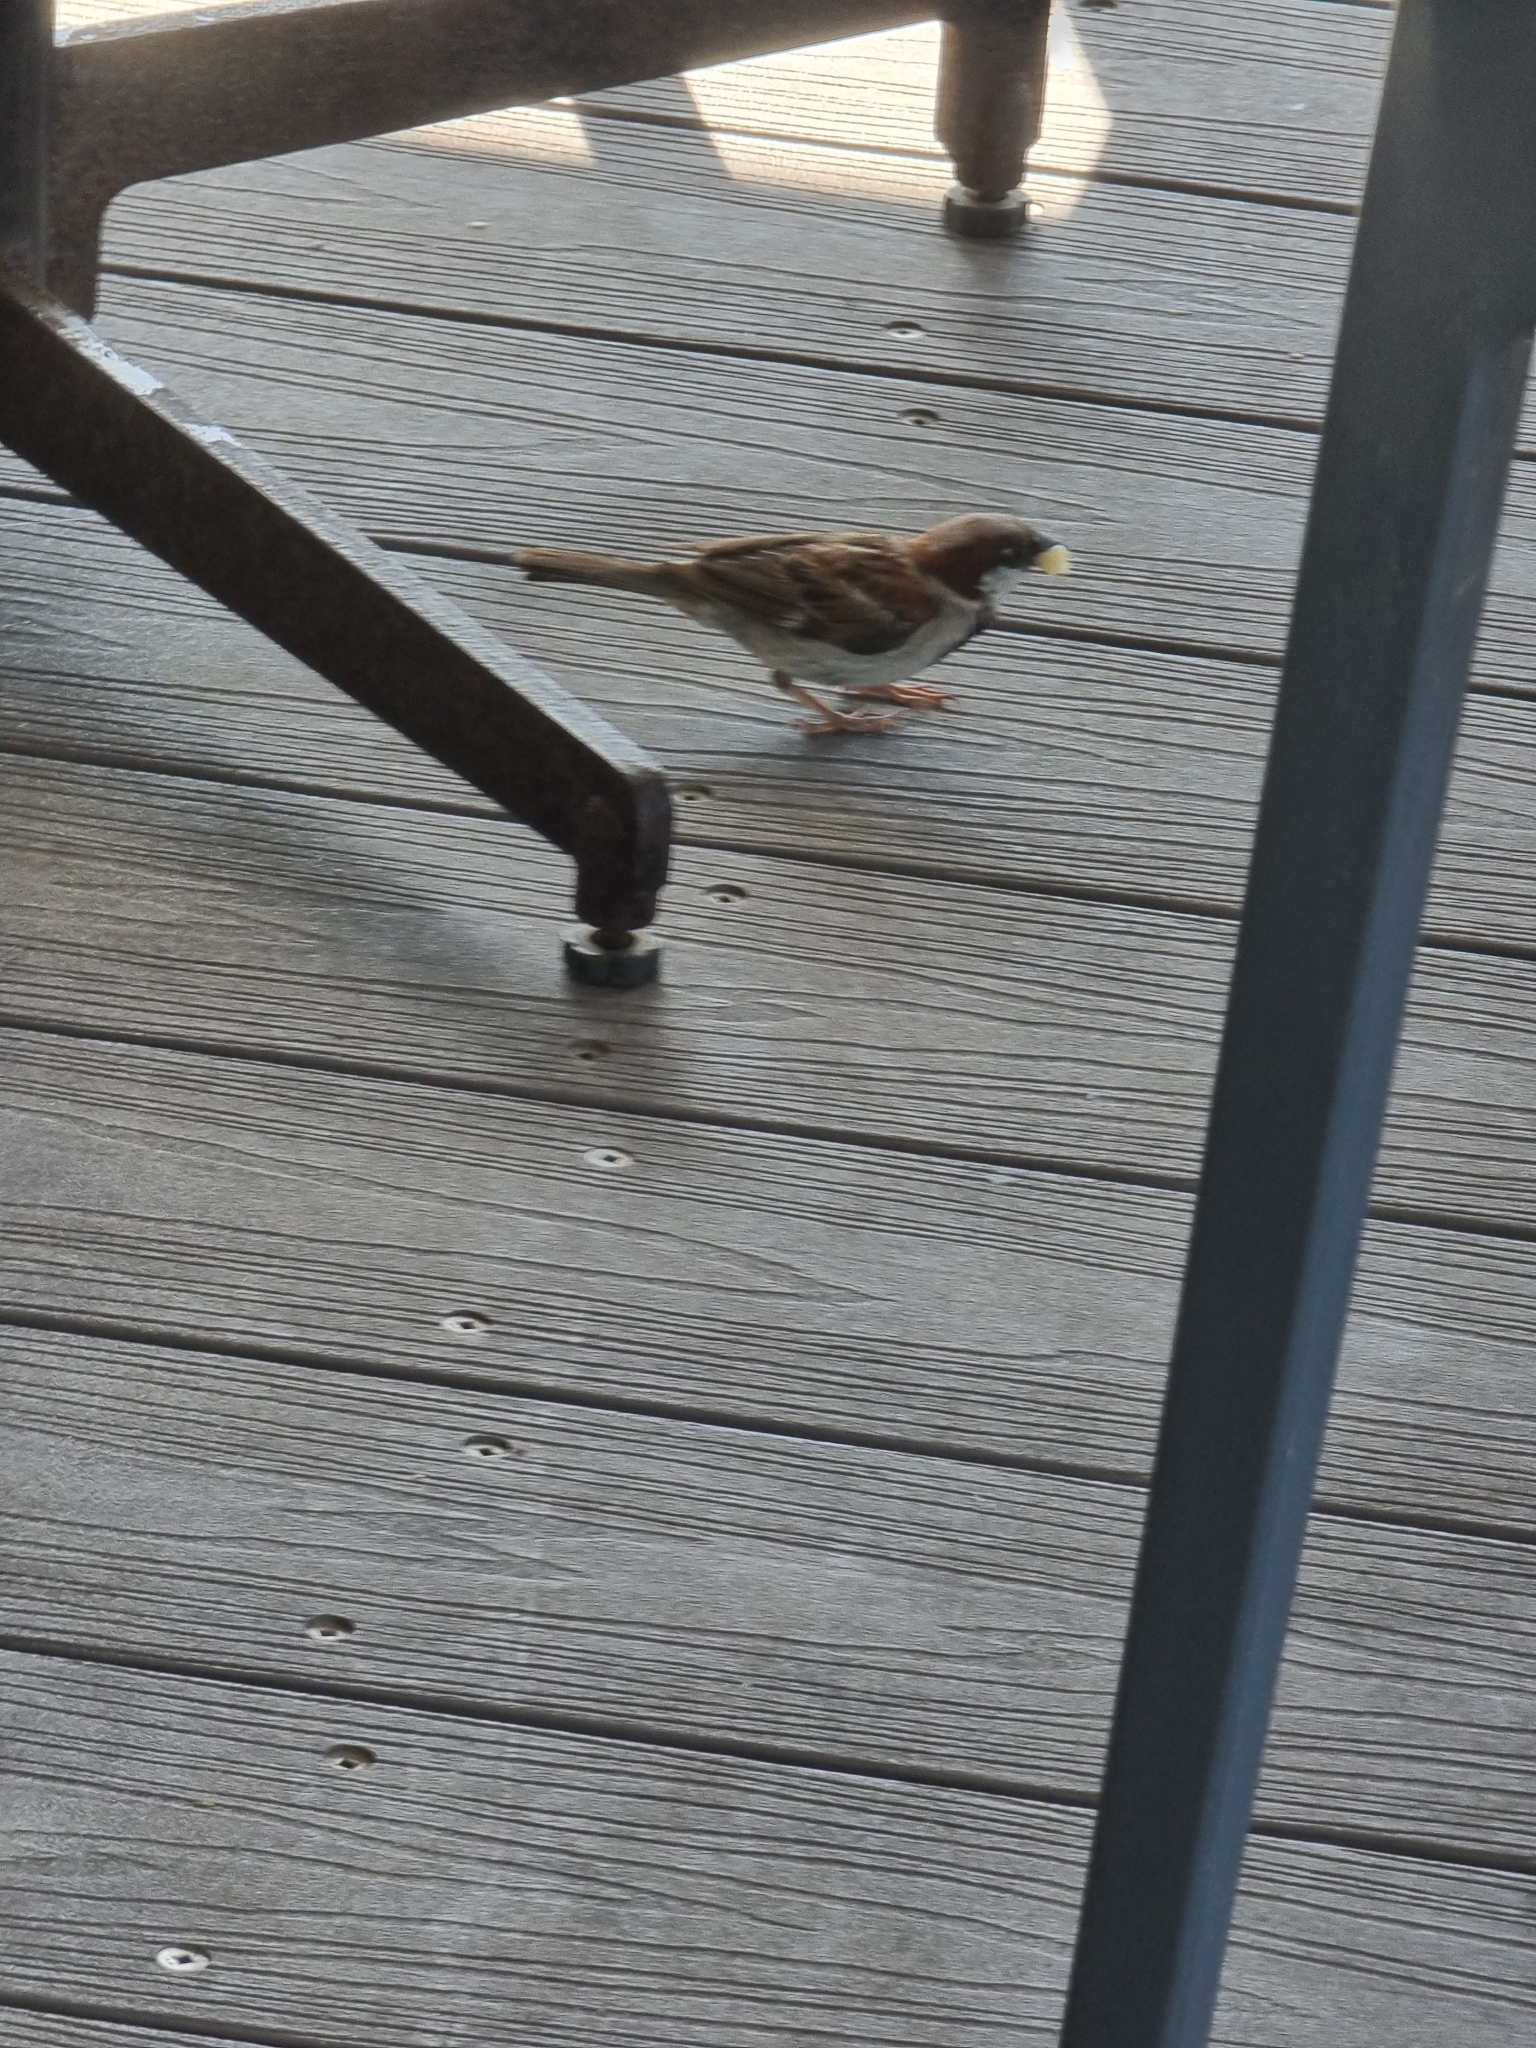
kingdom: Animalia
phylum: Chordata
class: Aves
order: Passeriformes
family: Passeridae
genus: Passer
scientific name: Passer domesticus
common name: House sparrow
